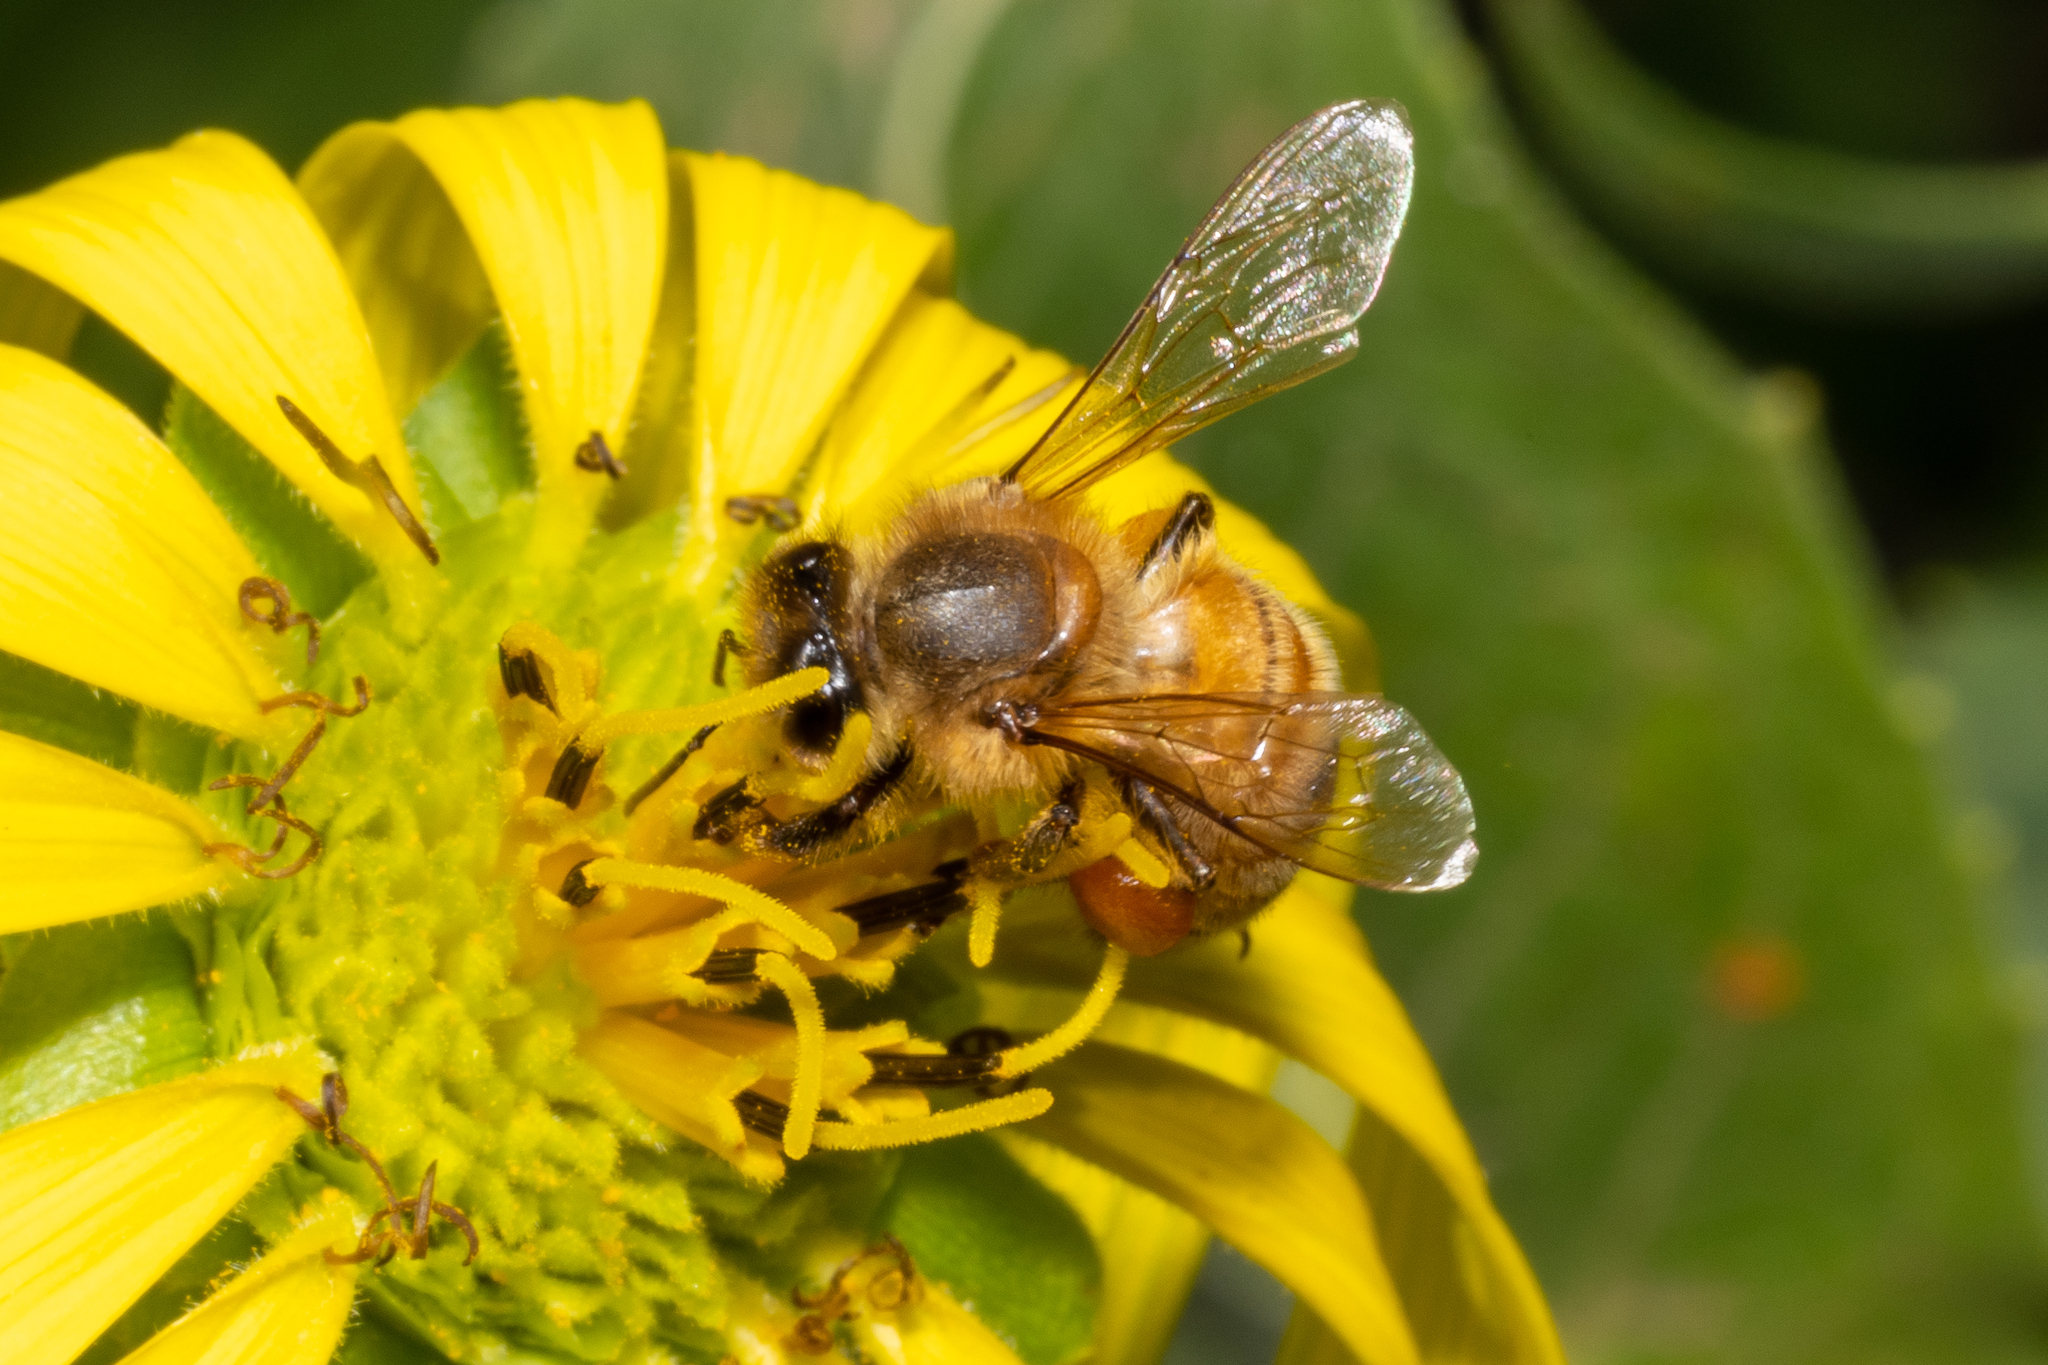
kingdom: Animalia
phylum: Arthropoda
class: Insecta
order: Hymenoptera
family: Apidae
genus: Apis
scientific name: Apis mellifera
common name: Honey bee
